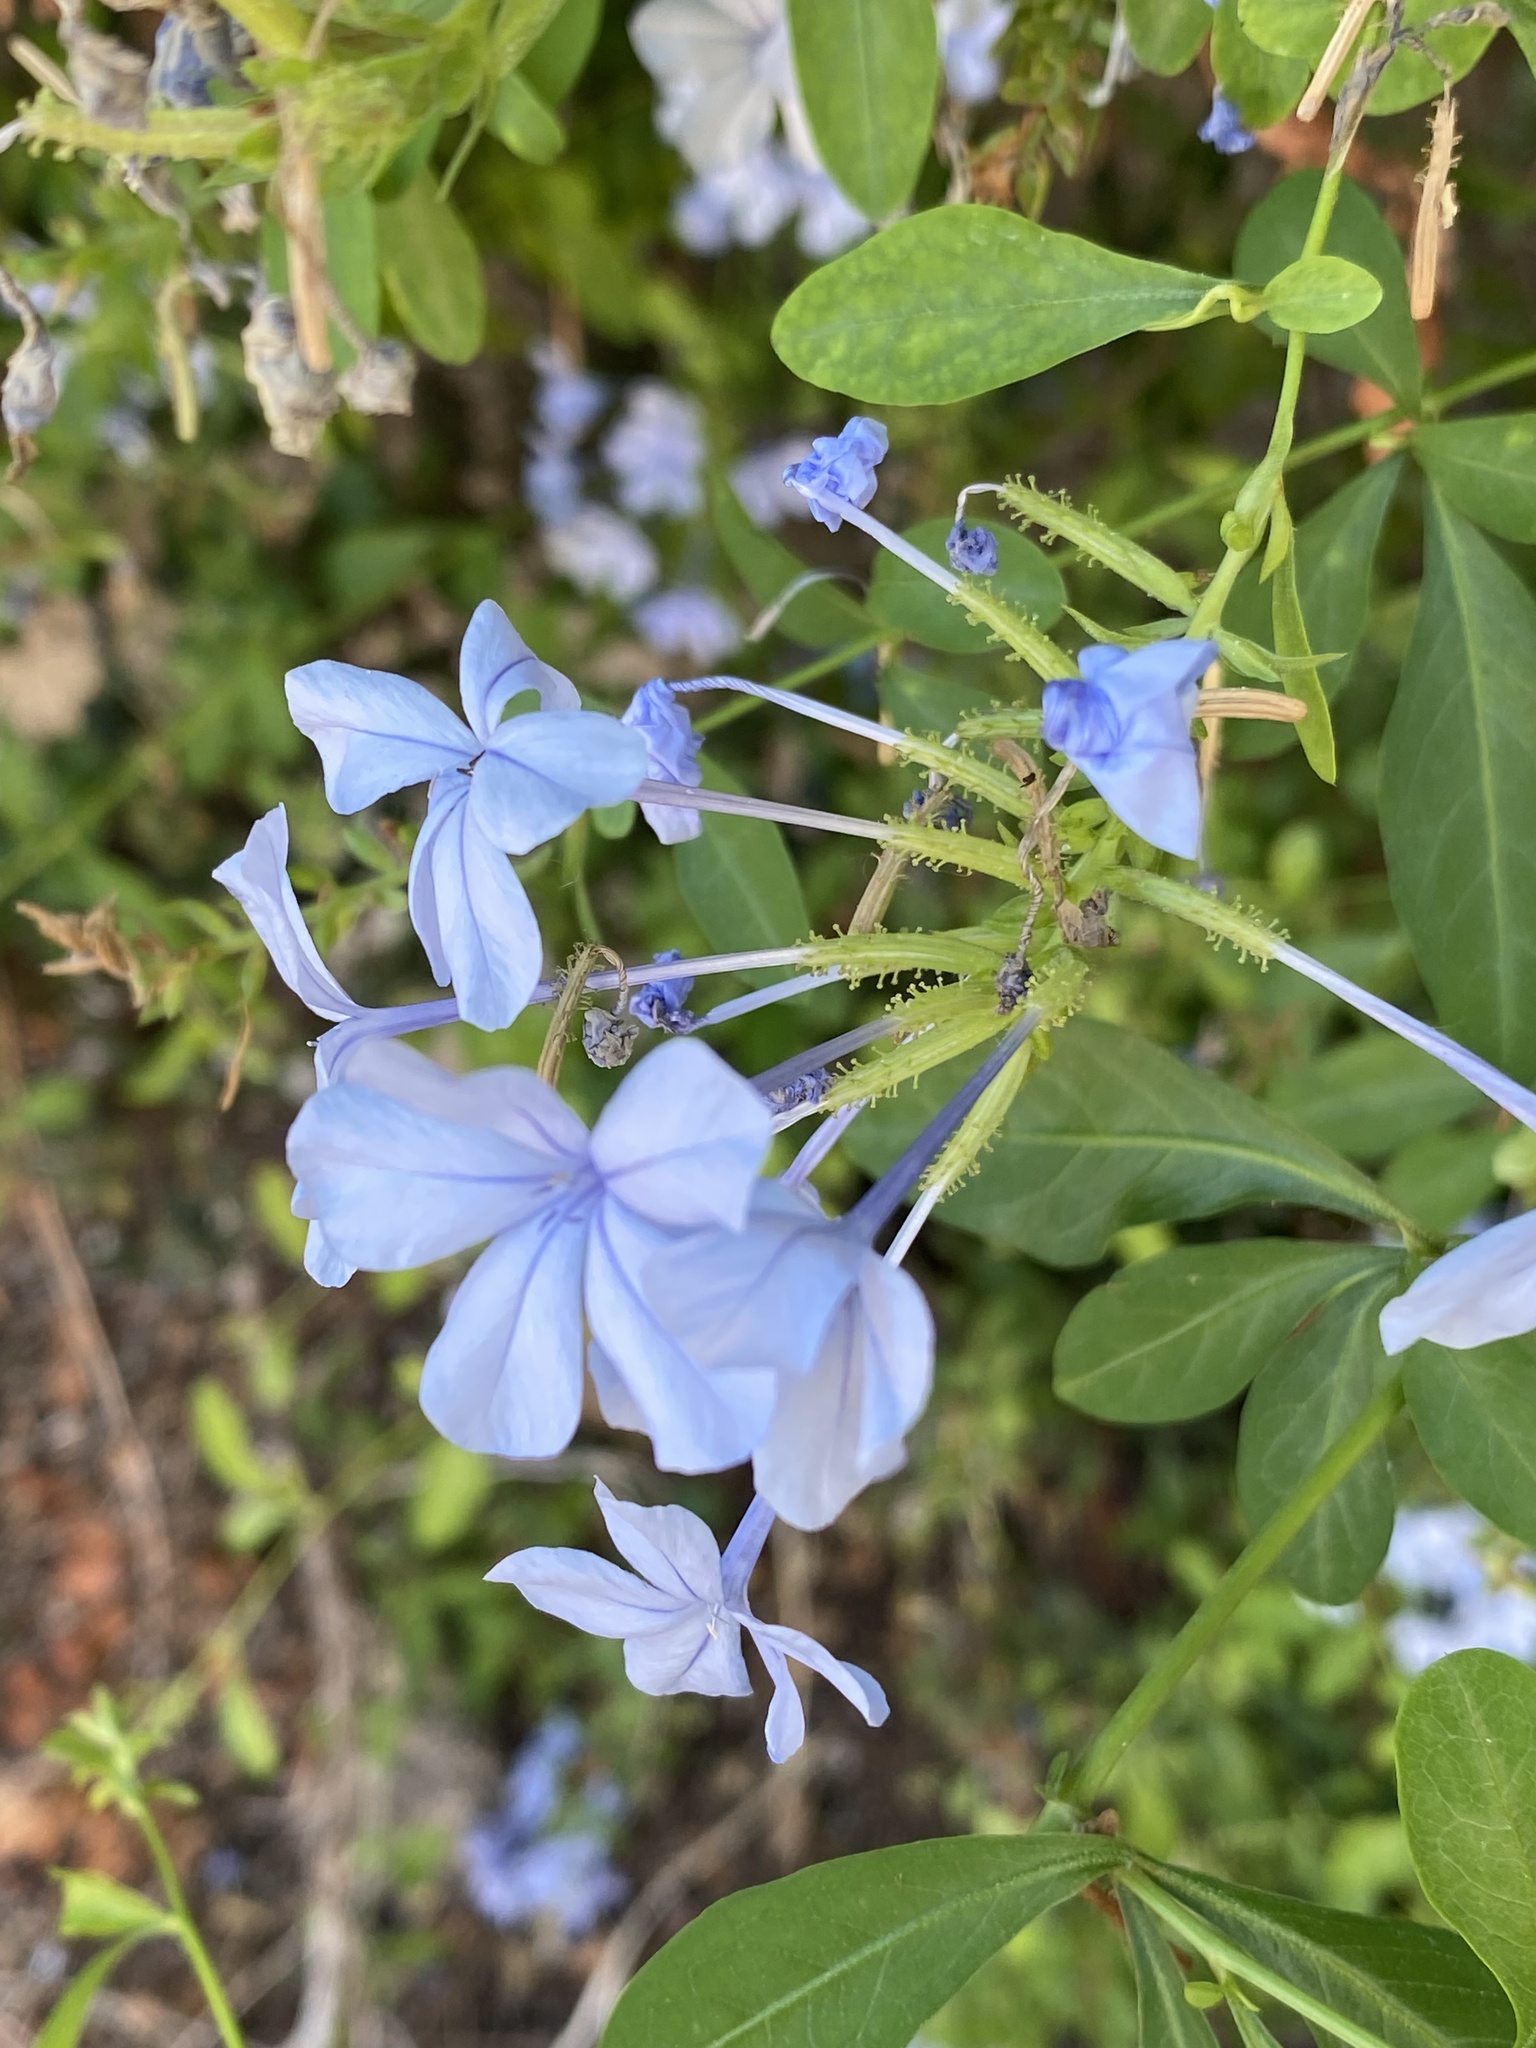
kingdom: Plantae
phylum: Tracheophyta
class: Magnoliopsida
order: Caryophyllales
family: Plumbaginaceae
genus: Plumbago
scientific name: Plumbago auriculata
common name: Cape leadwort
